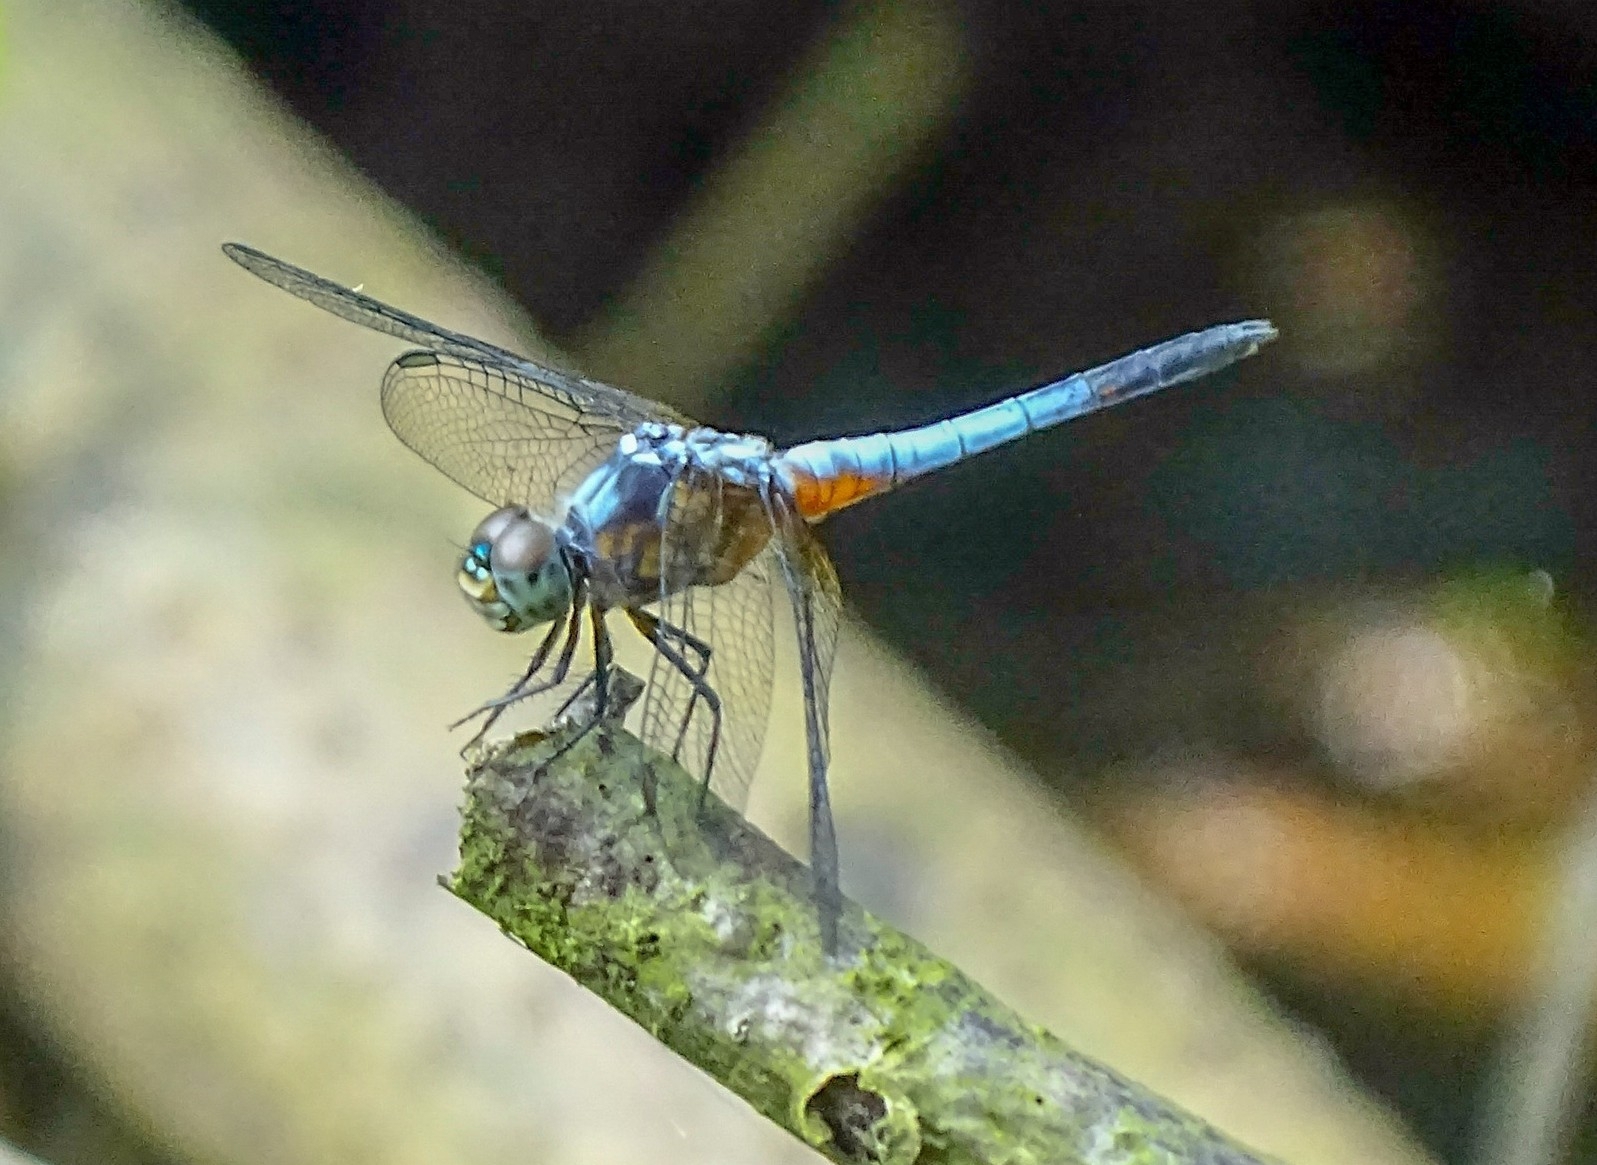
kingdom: Animalia
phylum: Arthropoda
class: Insecta
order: Odonata
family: Libellulidae
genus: Brachydiplax
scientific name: Brachydiplax chalybea
